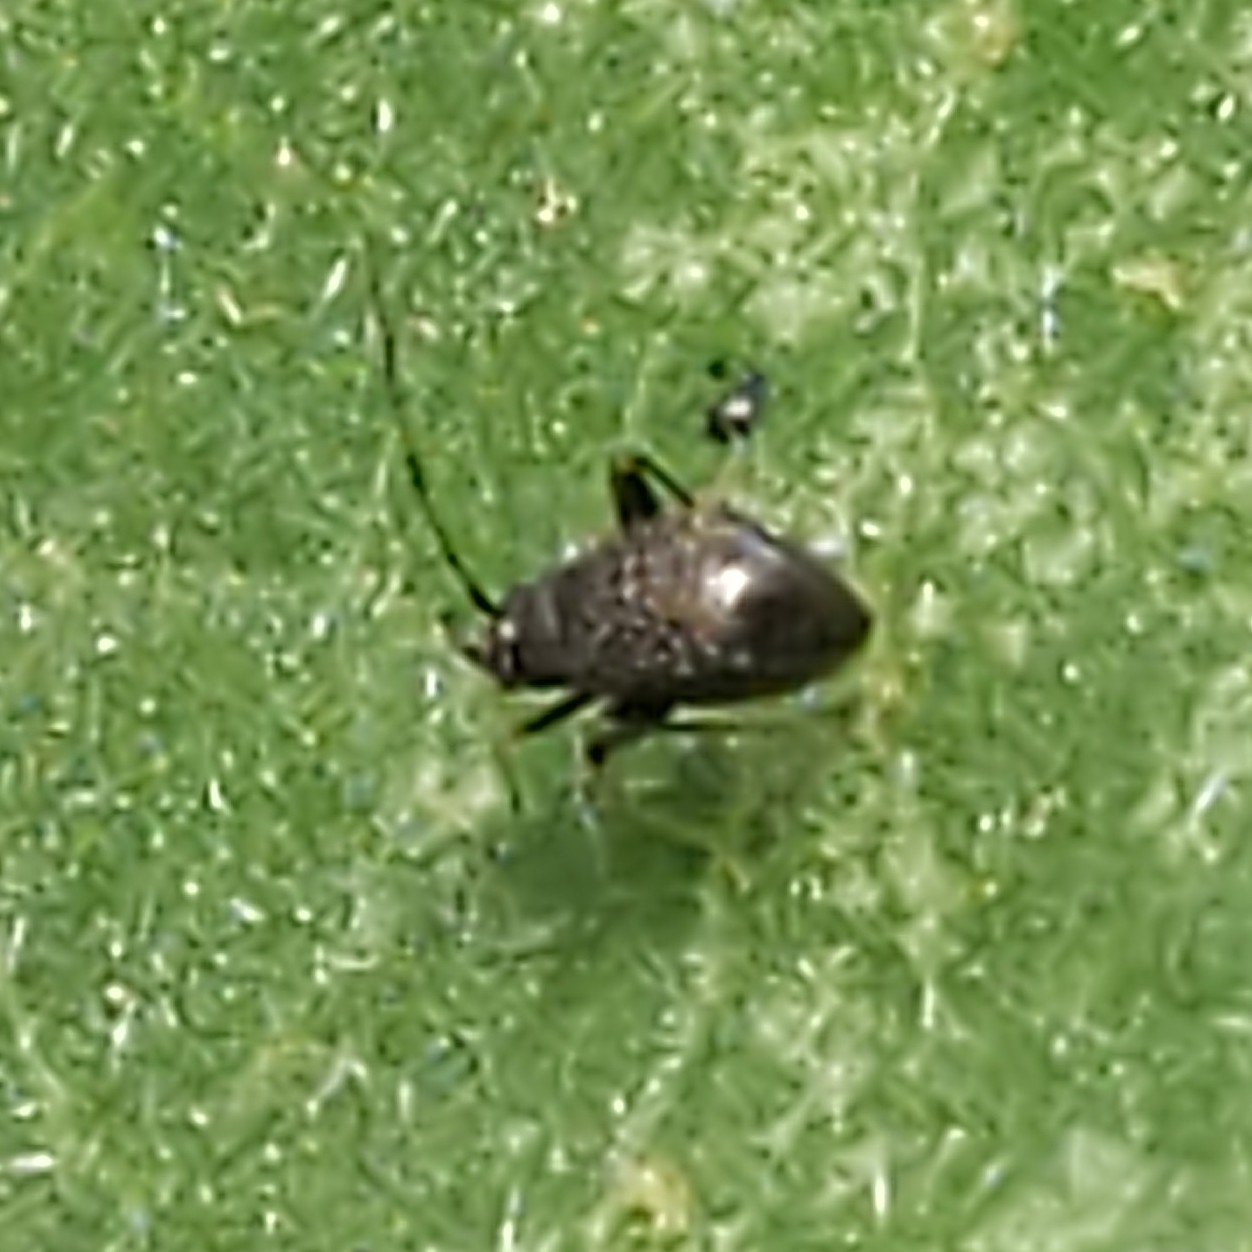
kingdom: Animalia
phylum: Arthropoda
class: Insecta
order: Hemiptera
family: Miridae
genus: Microtechnites
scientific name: Microtechnites bractatus
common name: Garden fleahopper
